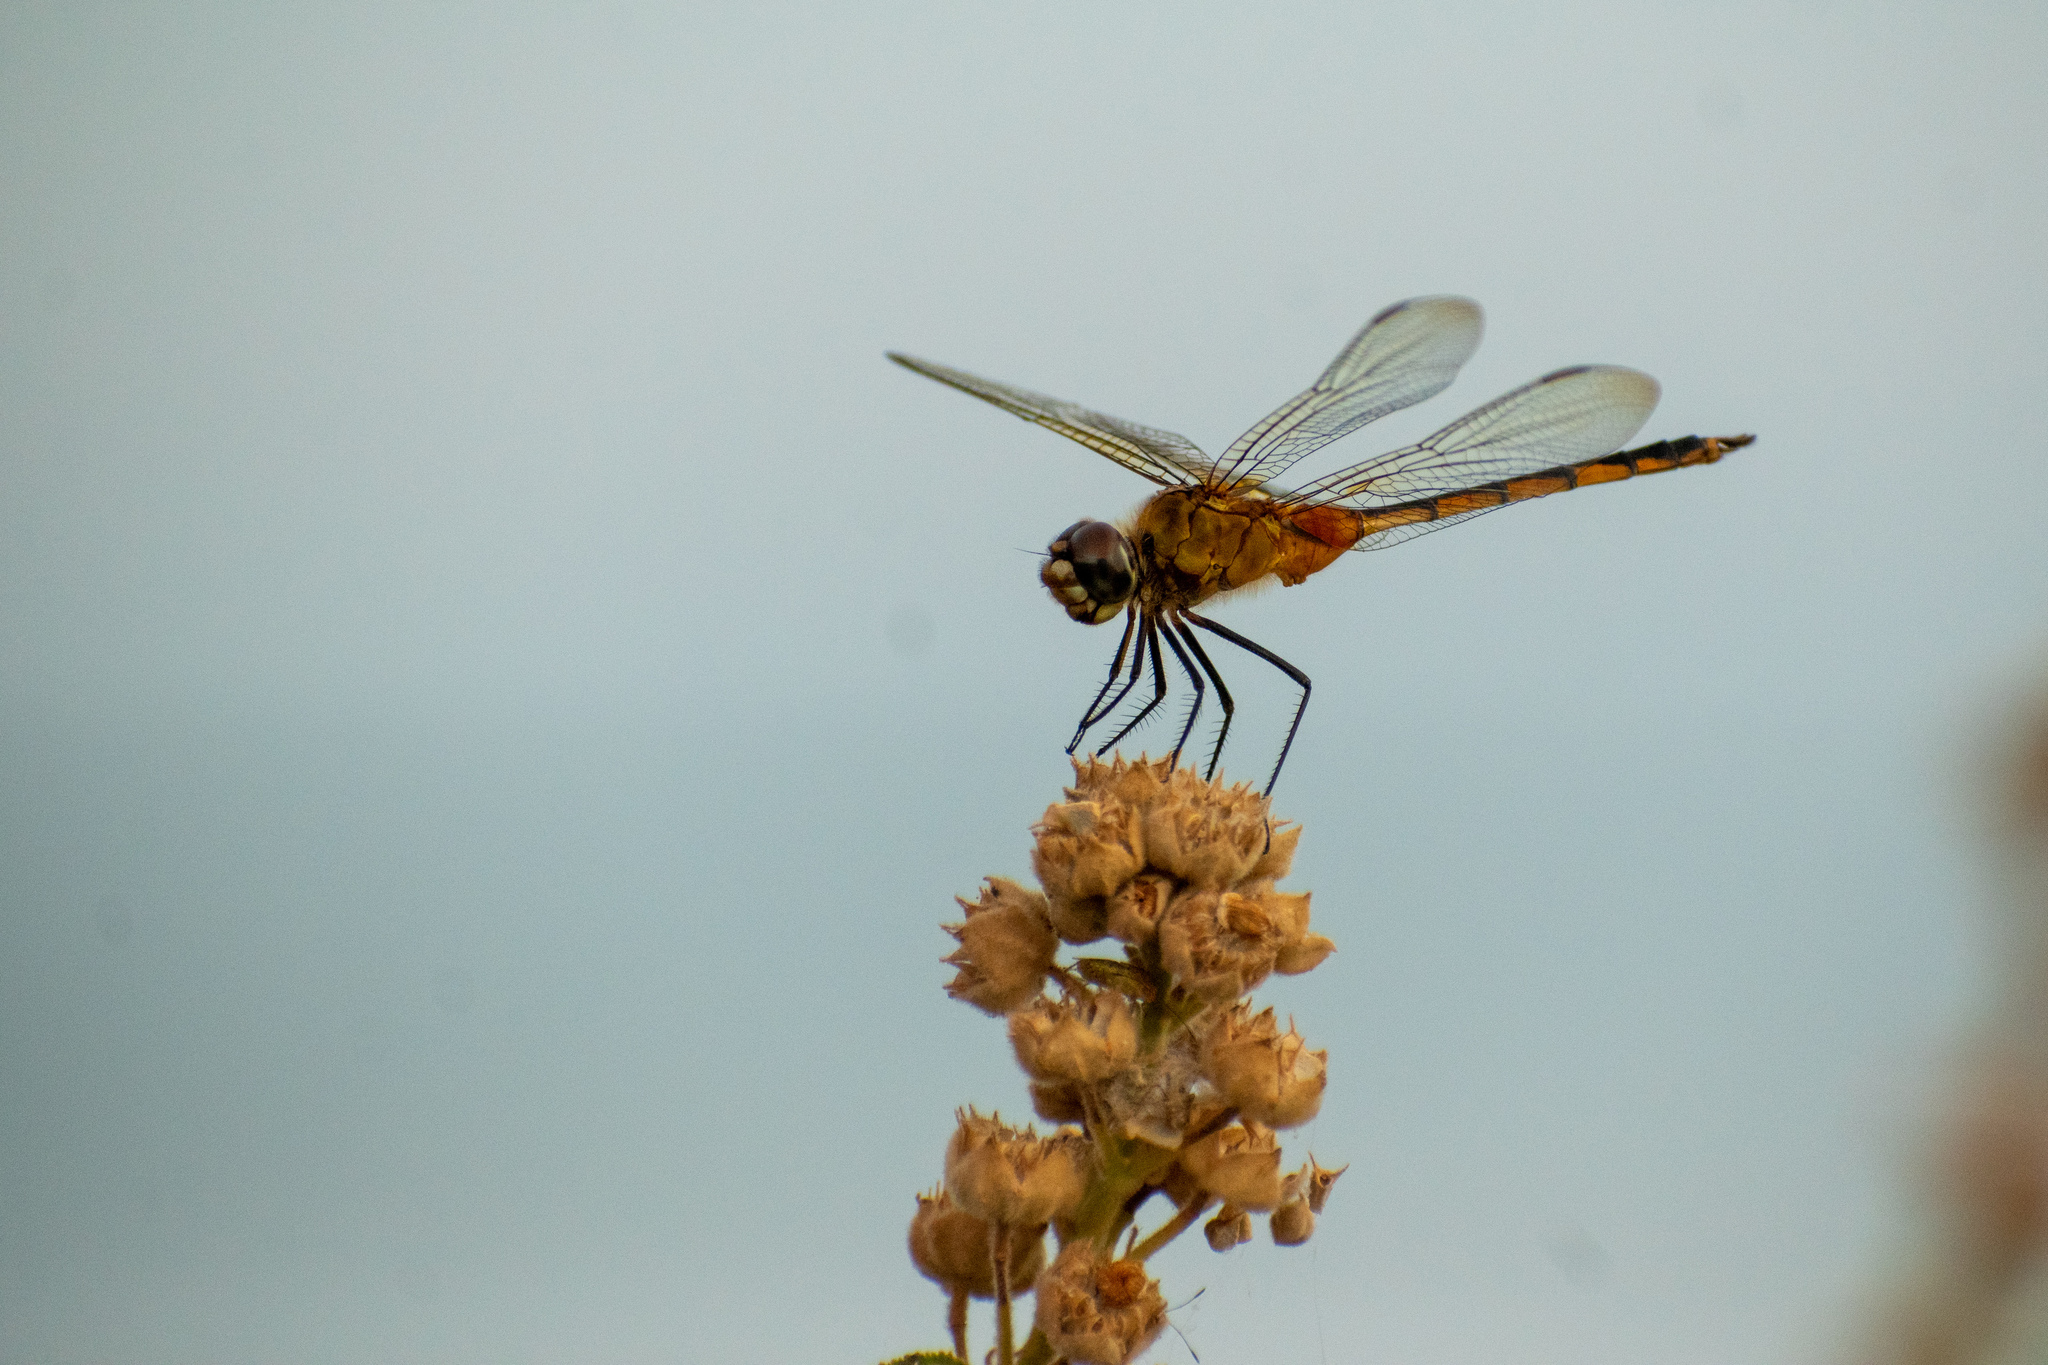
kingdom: Animalia
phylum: Arthropoda
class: Insecta
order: Odonata
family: Libellulidae
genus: Brachymesia
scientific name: Brachymesia herbida
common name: Tawny pennant
